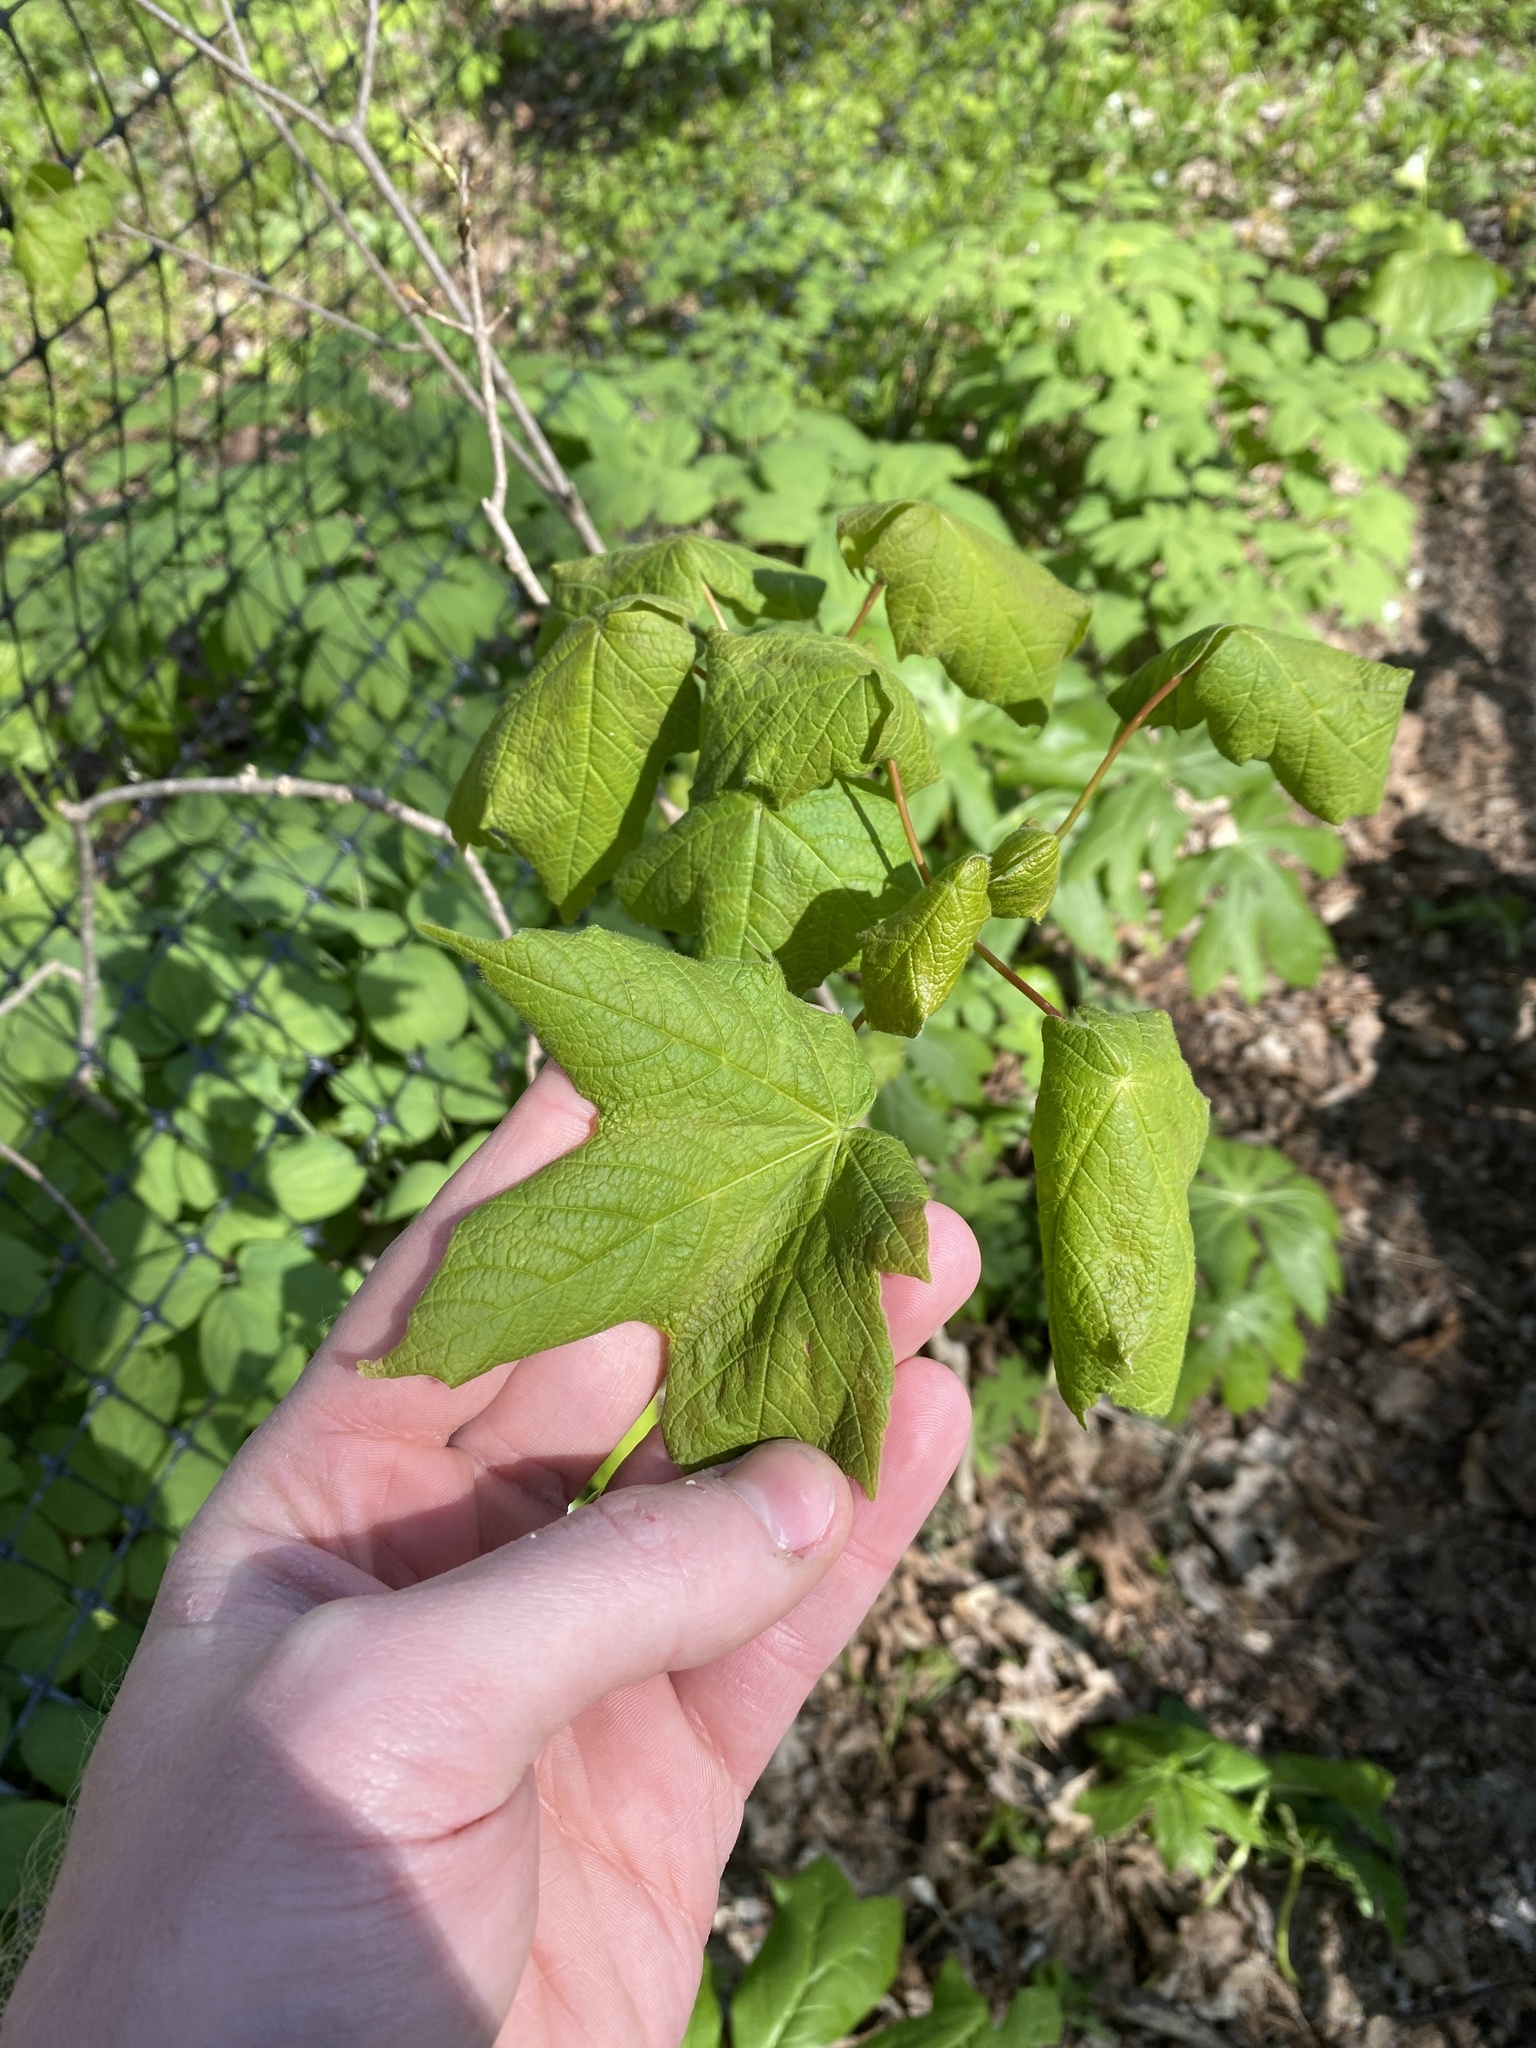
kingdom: Plantae
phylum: Tracheophyta
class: Magnoliopsida
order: Sapindales
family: Sapindaceae
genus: Acer
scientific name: Acer nigrum
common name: Black maple
